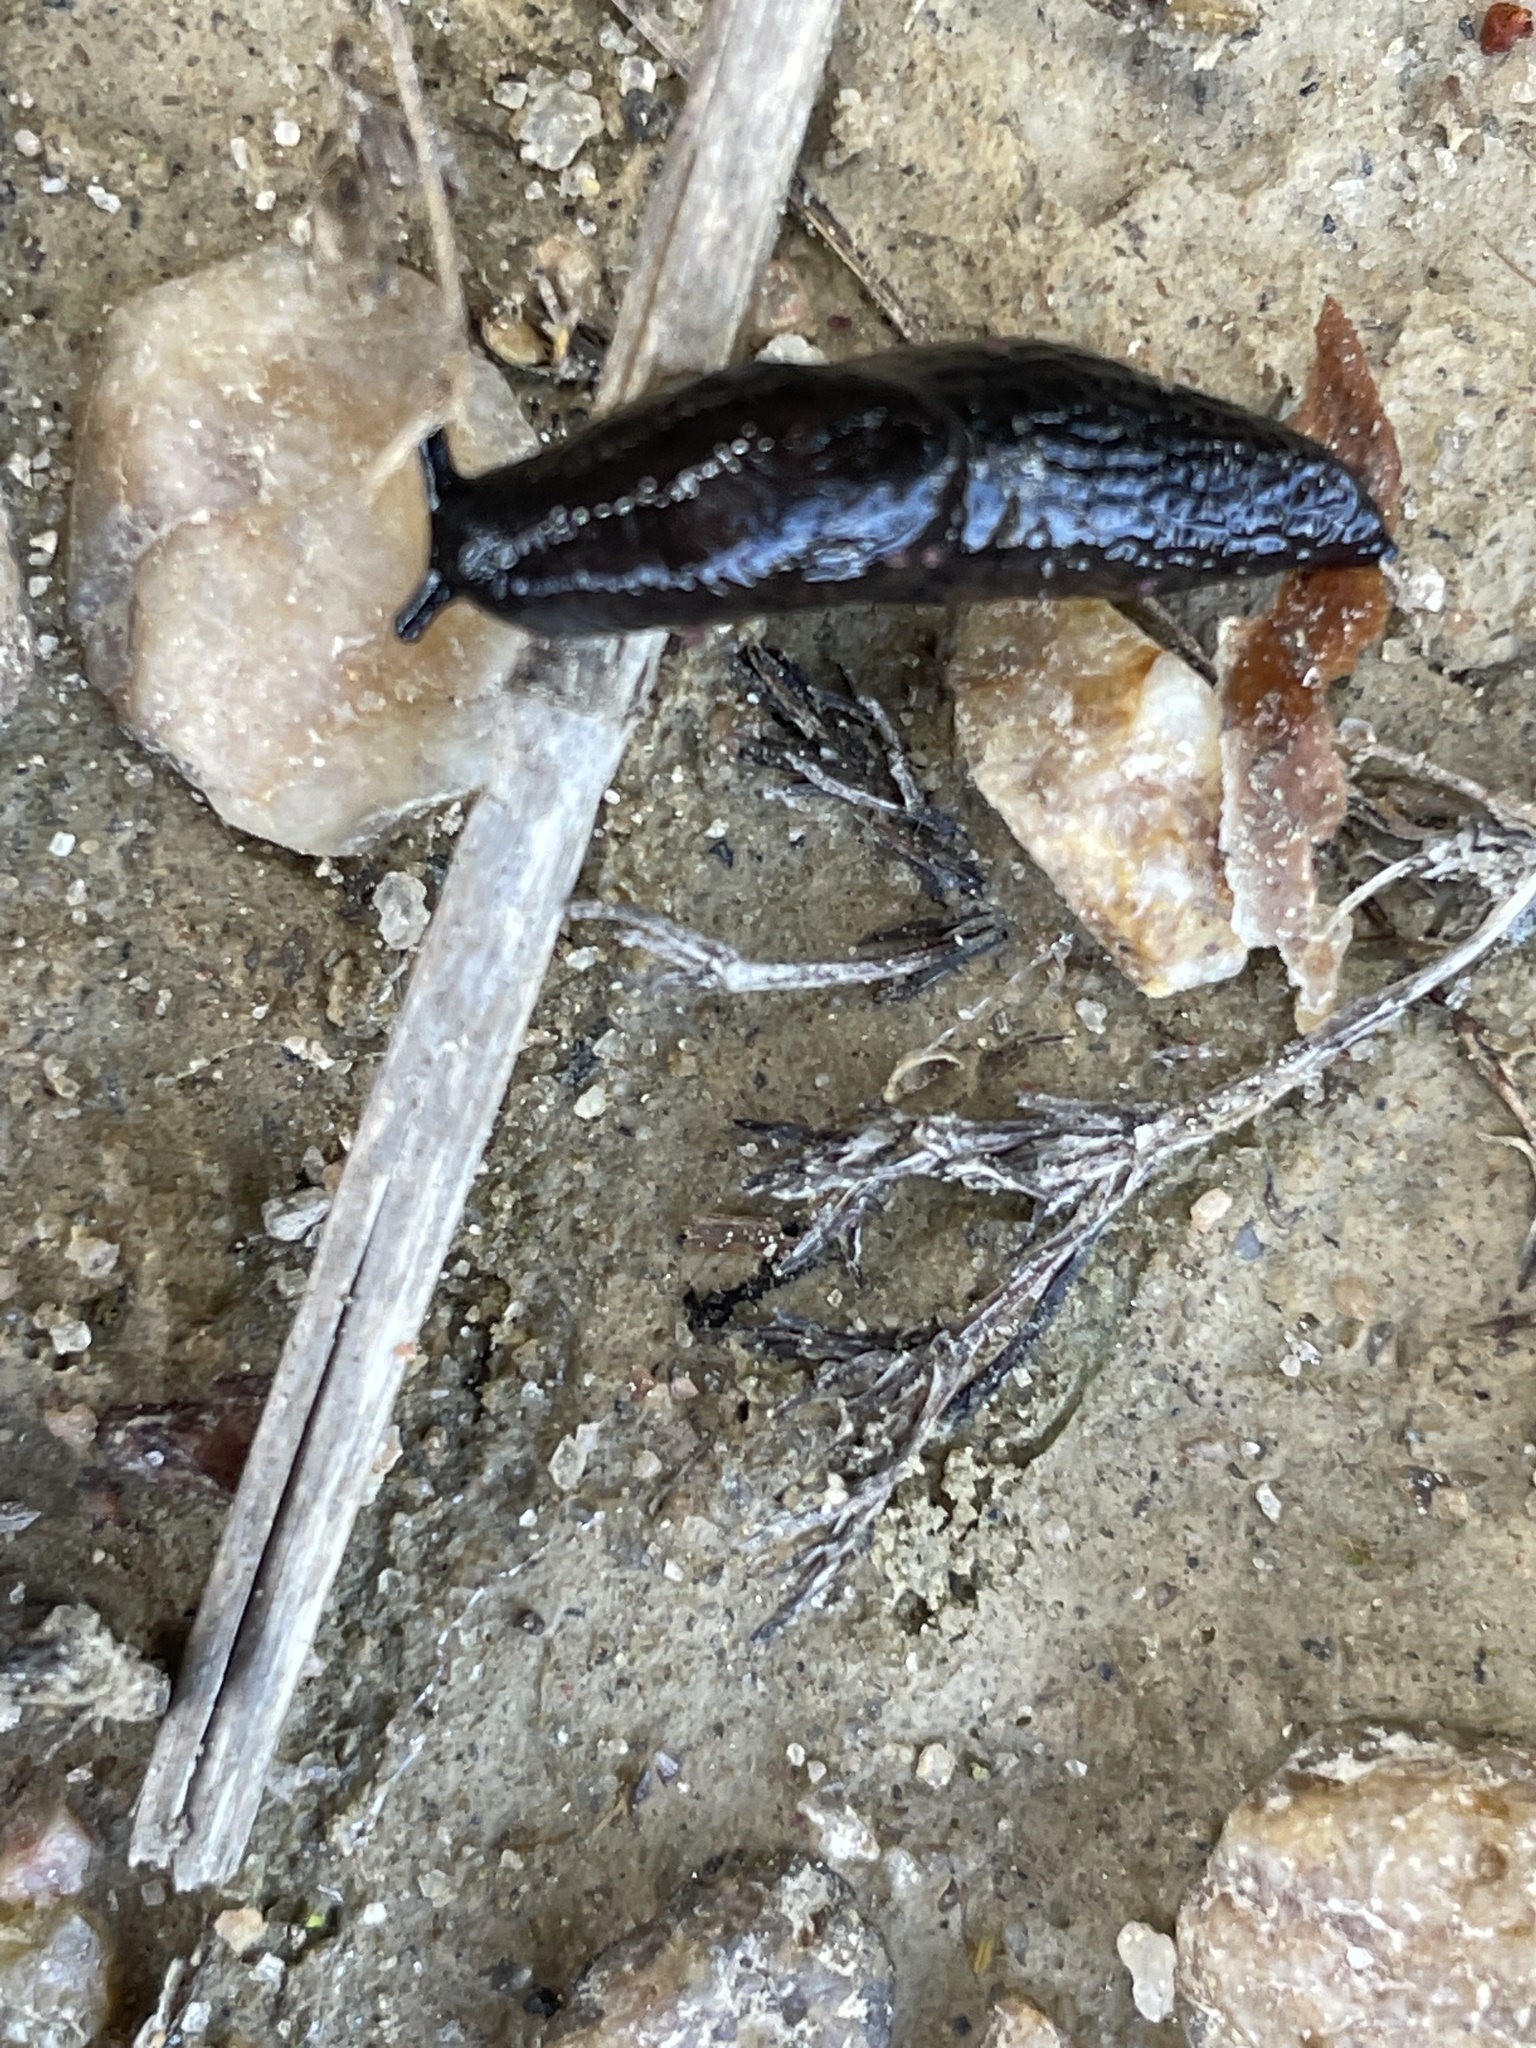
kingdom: Animalia
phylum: Mollusca
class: Gastropoda
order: Stylommatophora
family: Agriolimacidae
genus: Deroceras
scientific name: Deroceras laeve
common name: Marsh slug
